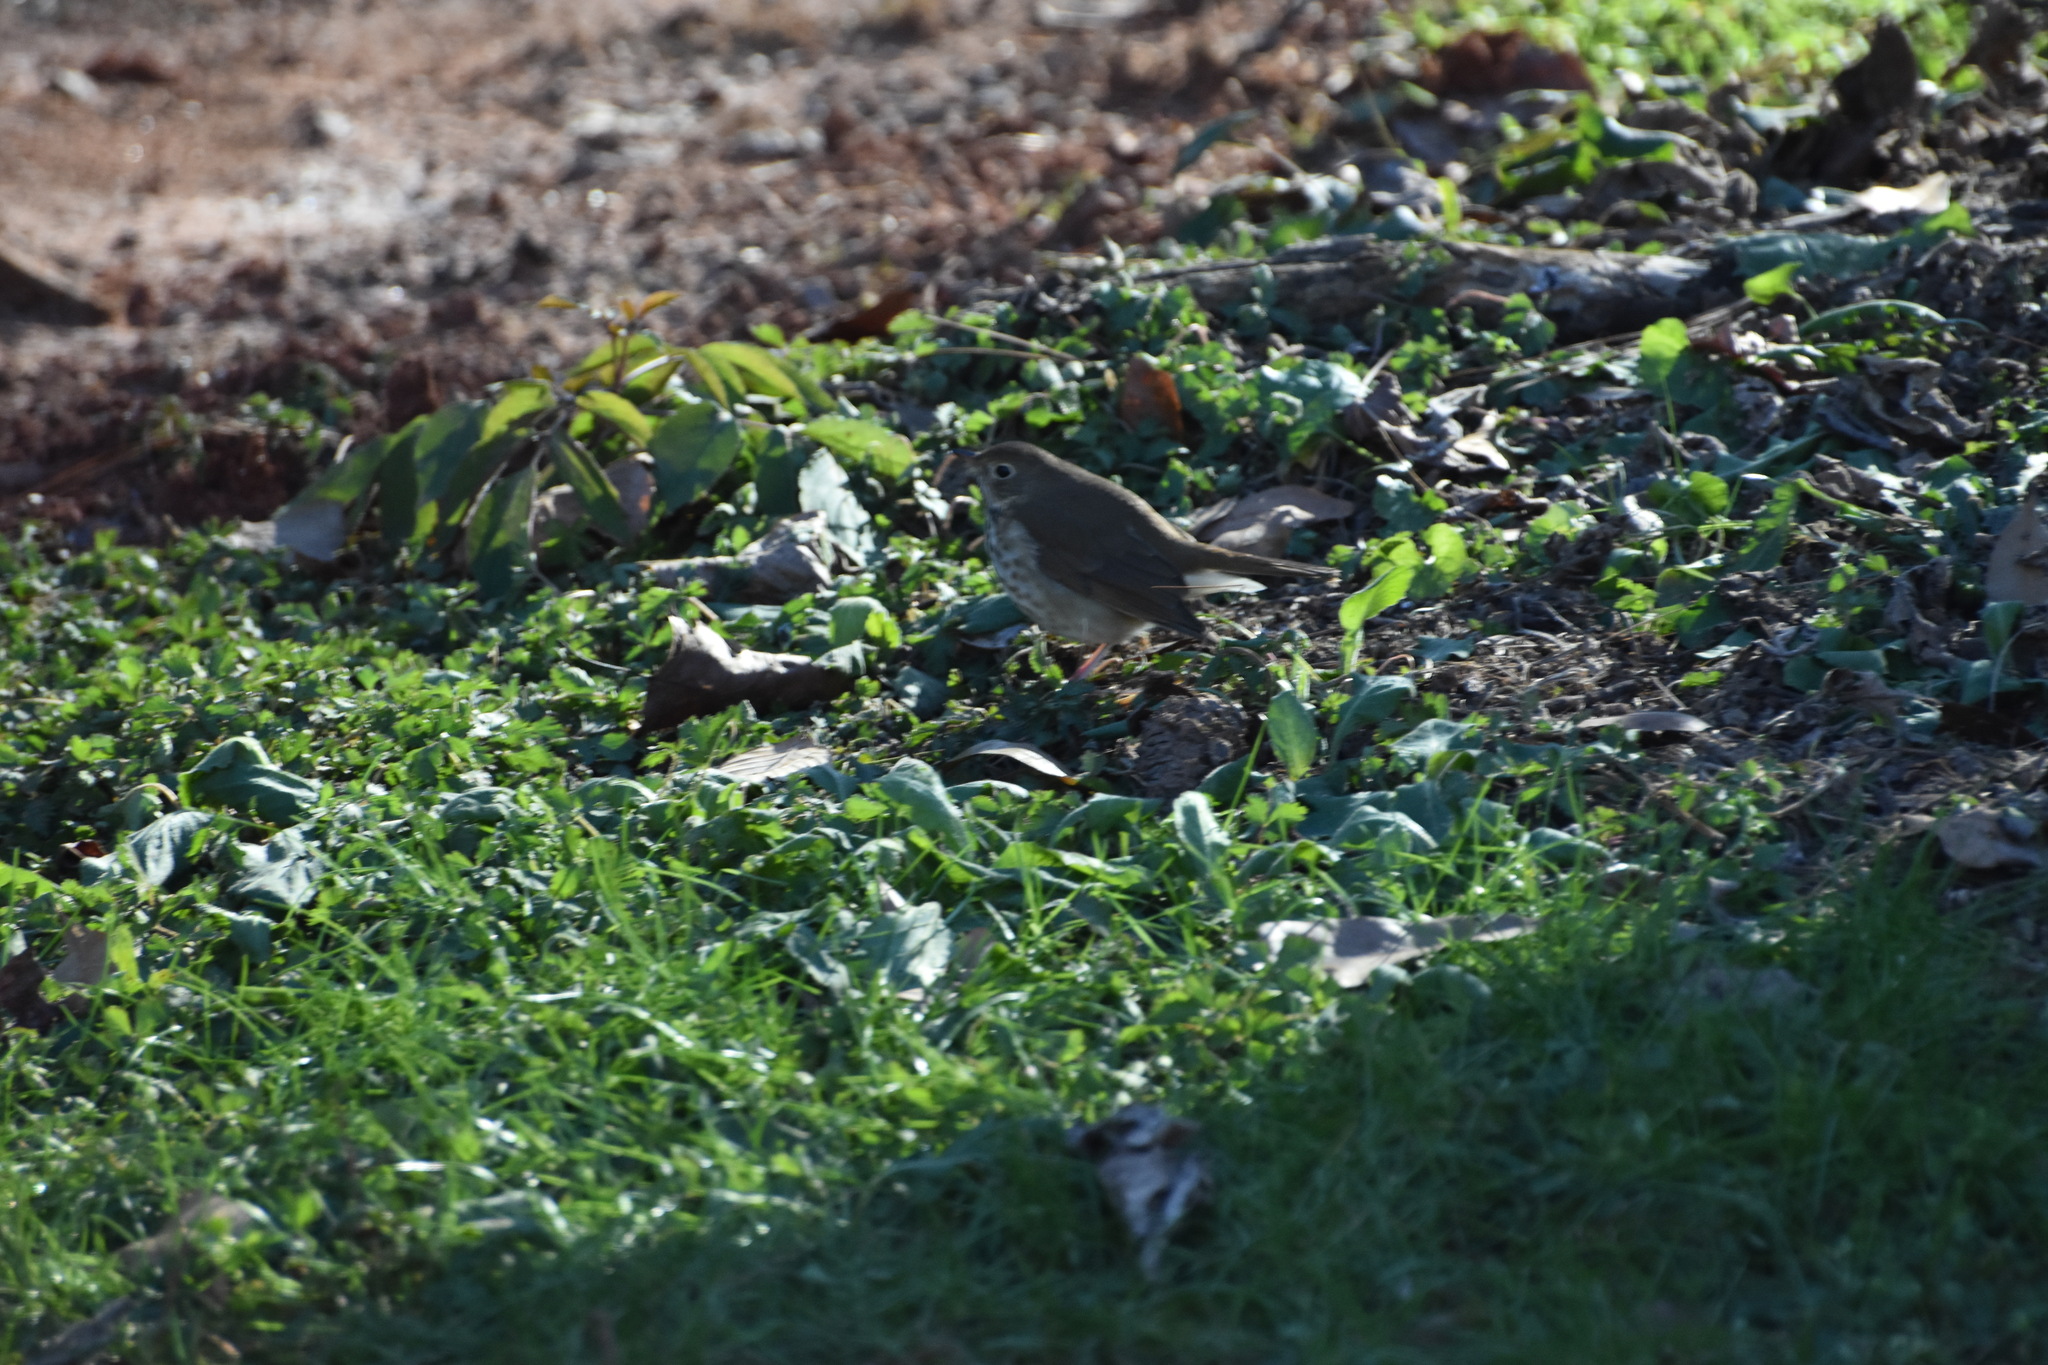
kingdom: Animalia
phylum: Chordata
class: Aves
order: Passeriformes
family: Turdidae
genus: Catharus
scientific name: Catharus guttatus
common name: Hermit thrush
